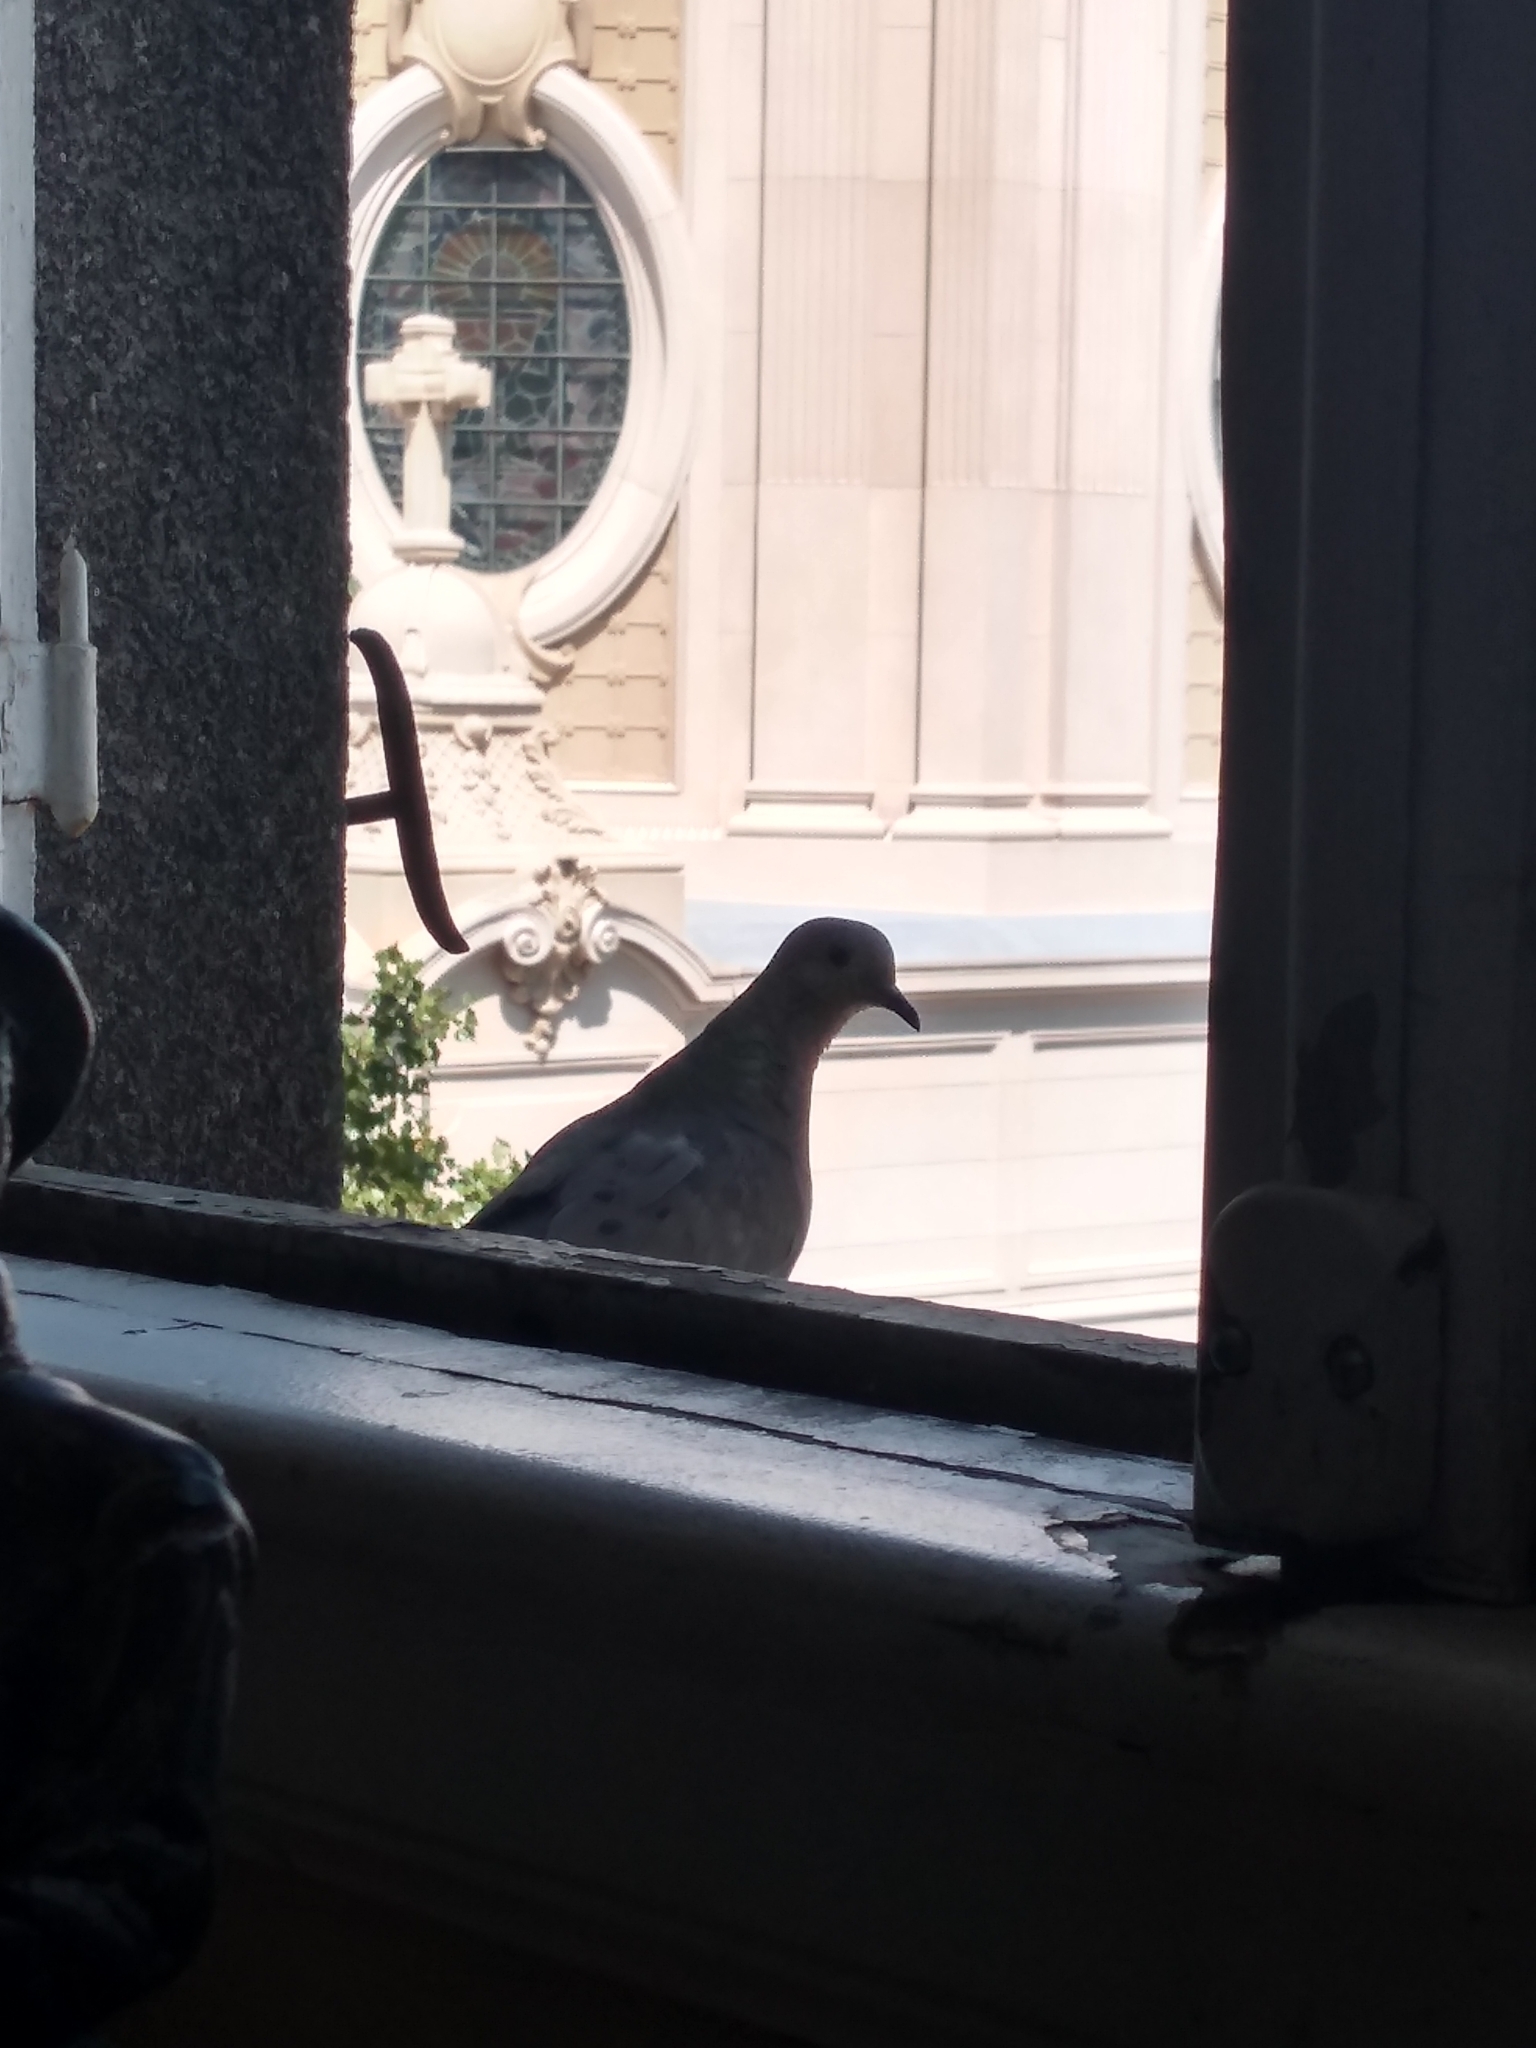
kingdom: Animalia
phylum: Chordata
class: Aves
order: Columbiformes
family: Columbidae
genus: Zenaida
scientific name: Zenaida auriculata
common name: Eared dove
